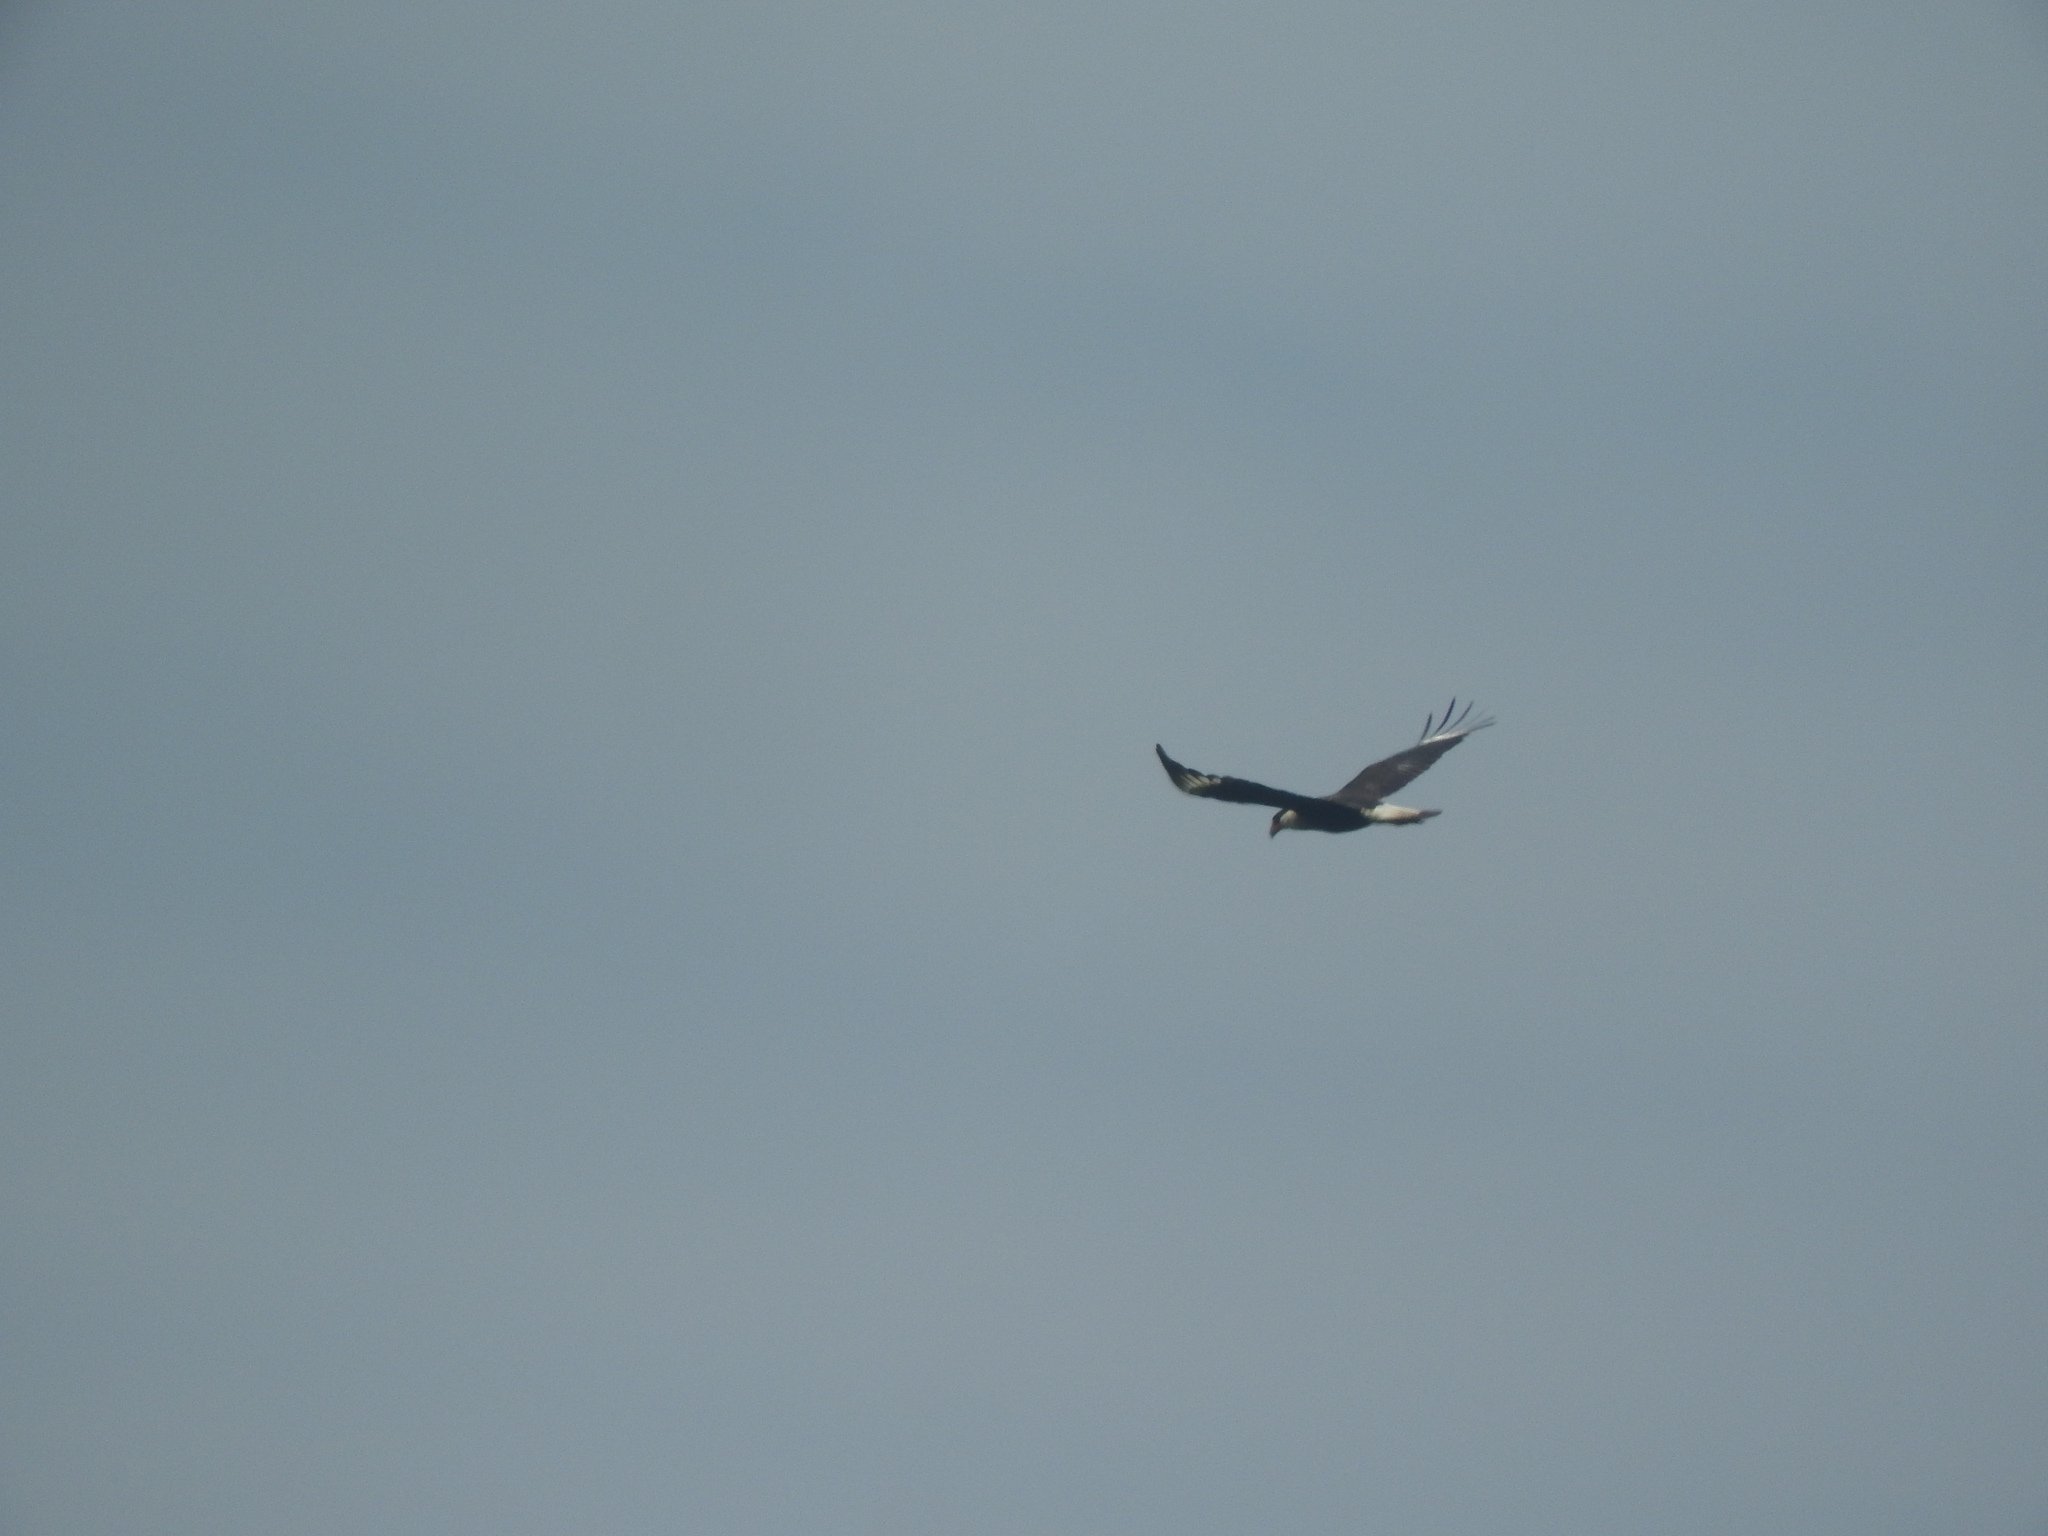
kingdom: Animalia
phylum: Chordata
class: Aves
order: Falconiformes
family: Falconidae
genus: Caracara
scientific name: Caracara plancus
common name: Southern caracara
